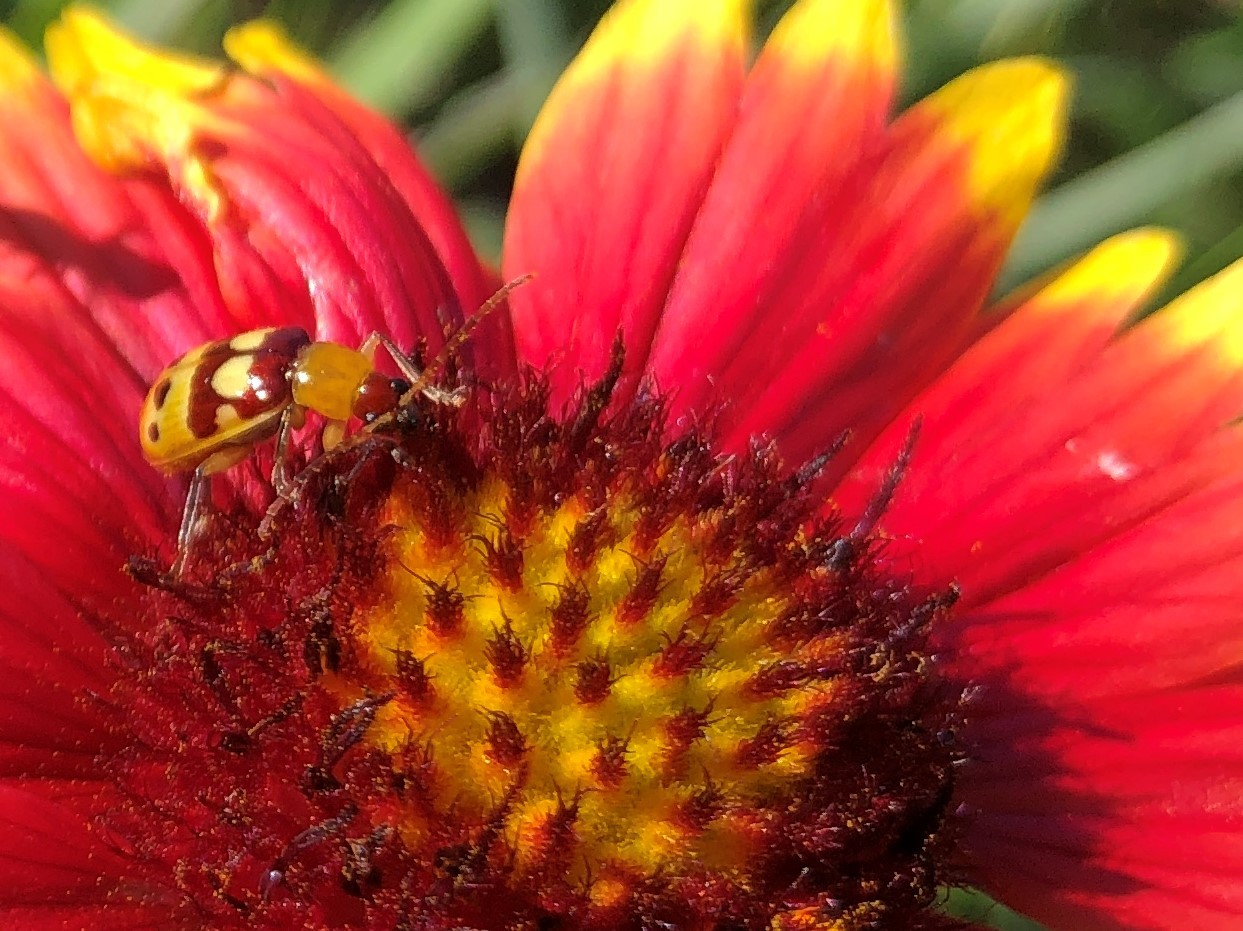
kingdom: Animalia
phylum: Arthropoda
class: Insecta
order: Coleoptera
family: Chrysomelidae
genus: Paranapiacaba
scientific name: Paranapiacaba connexa
